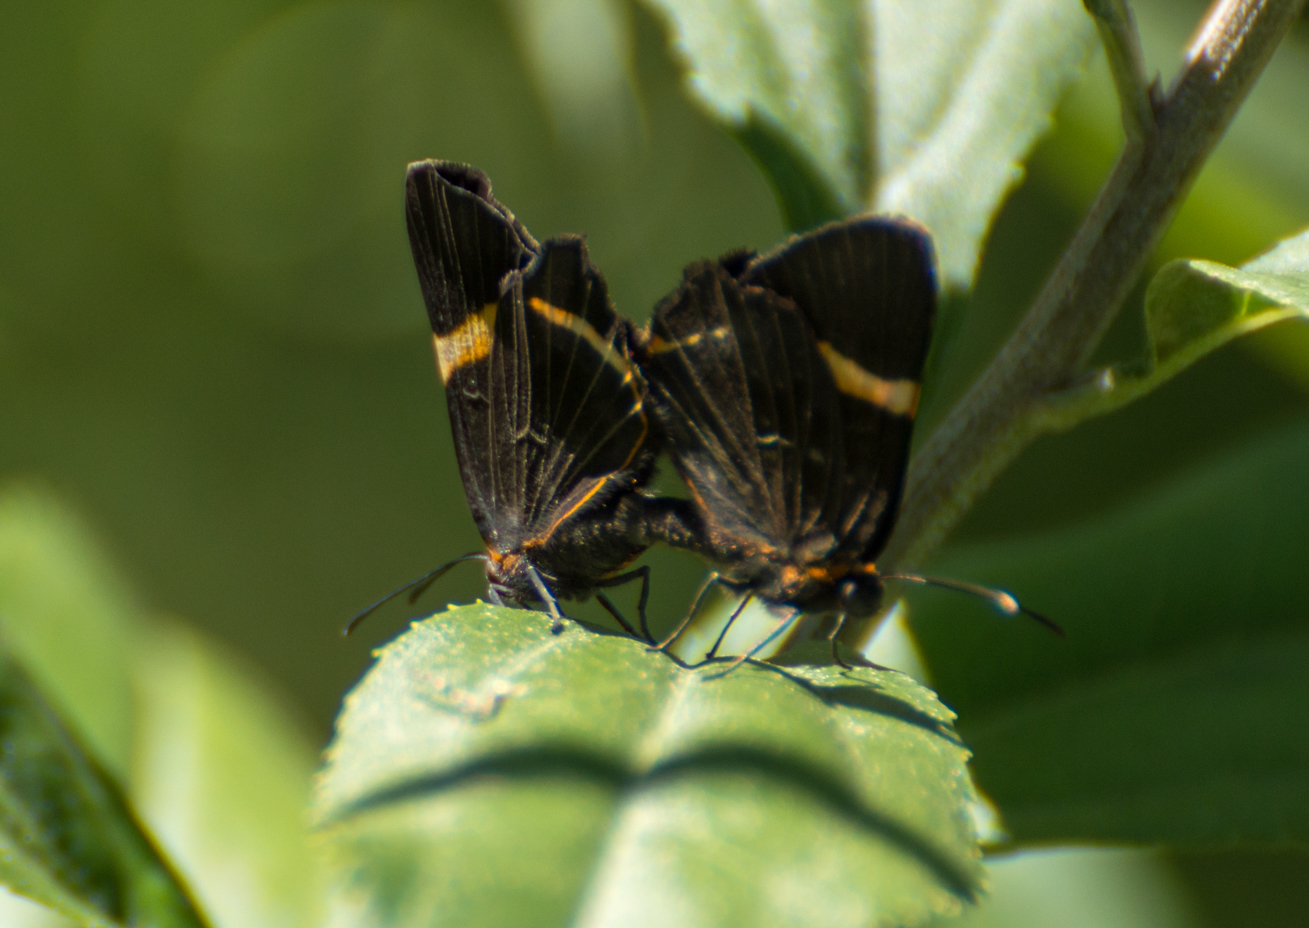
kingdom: Animalia
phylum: Arthropoda
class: Insecta
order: Lepidoptera
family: Riodinidae
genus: Riodina
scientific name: Riodina lysippoides
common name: Little dancer metalmark
